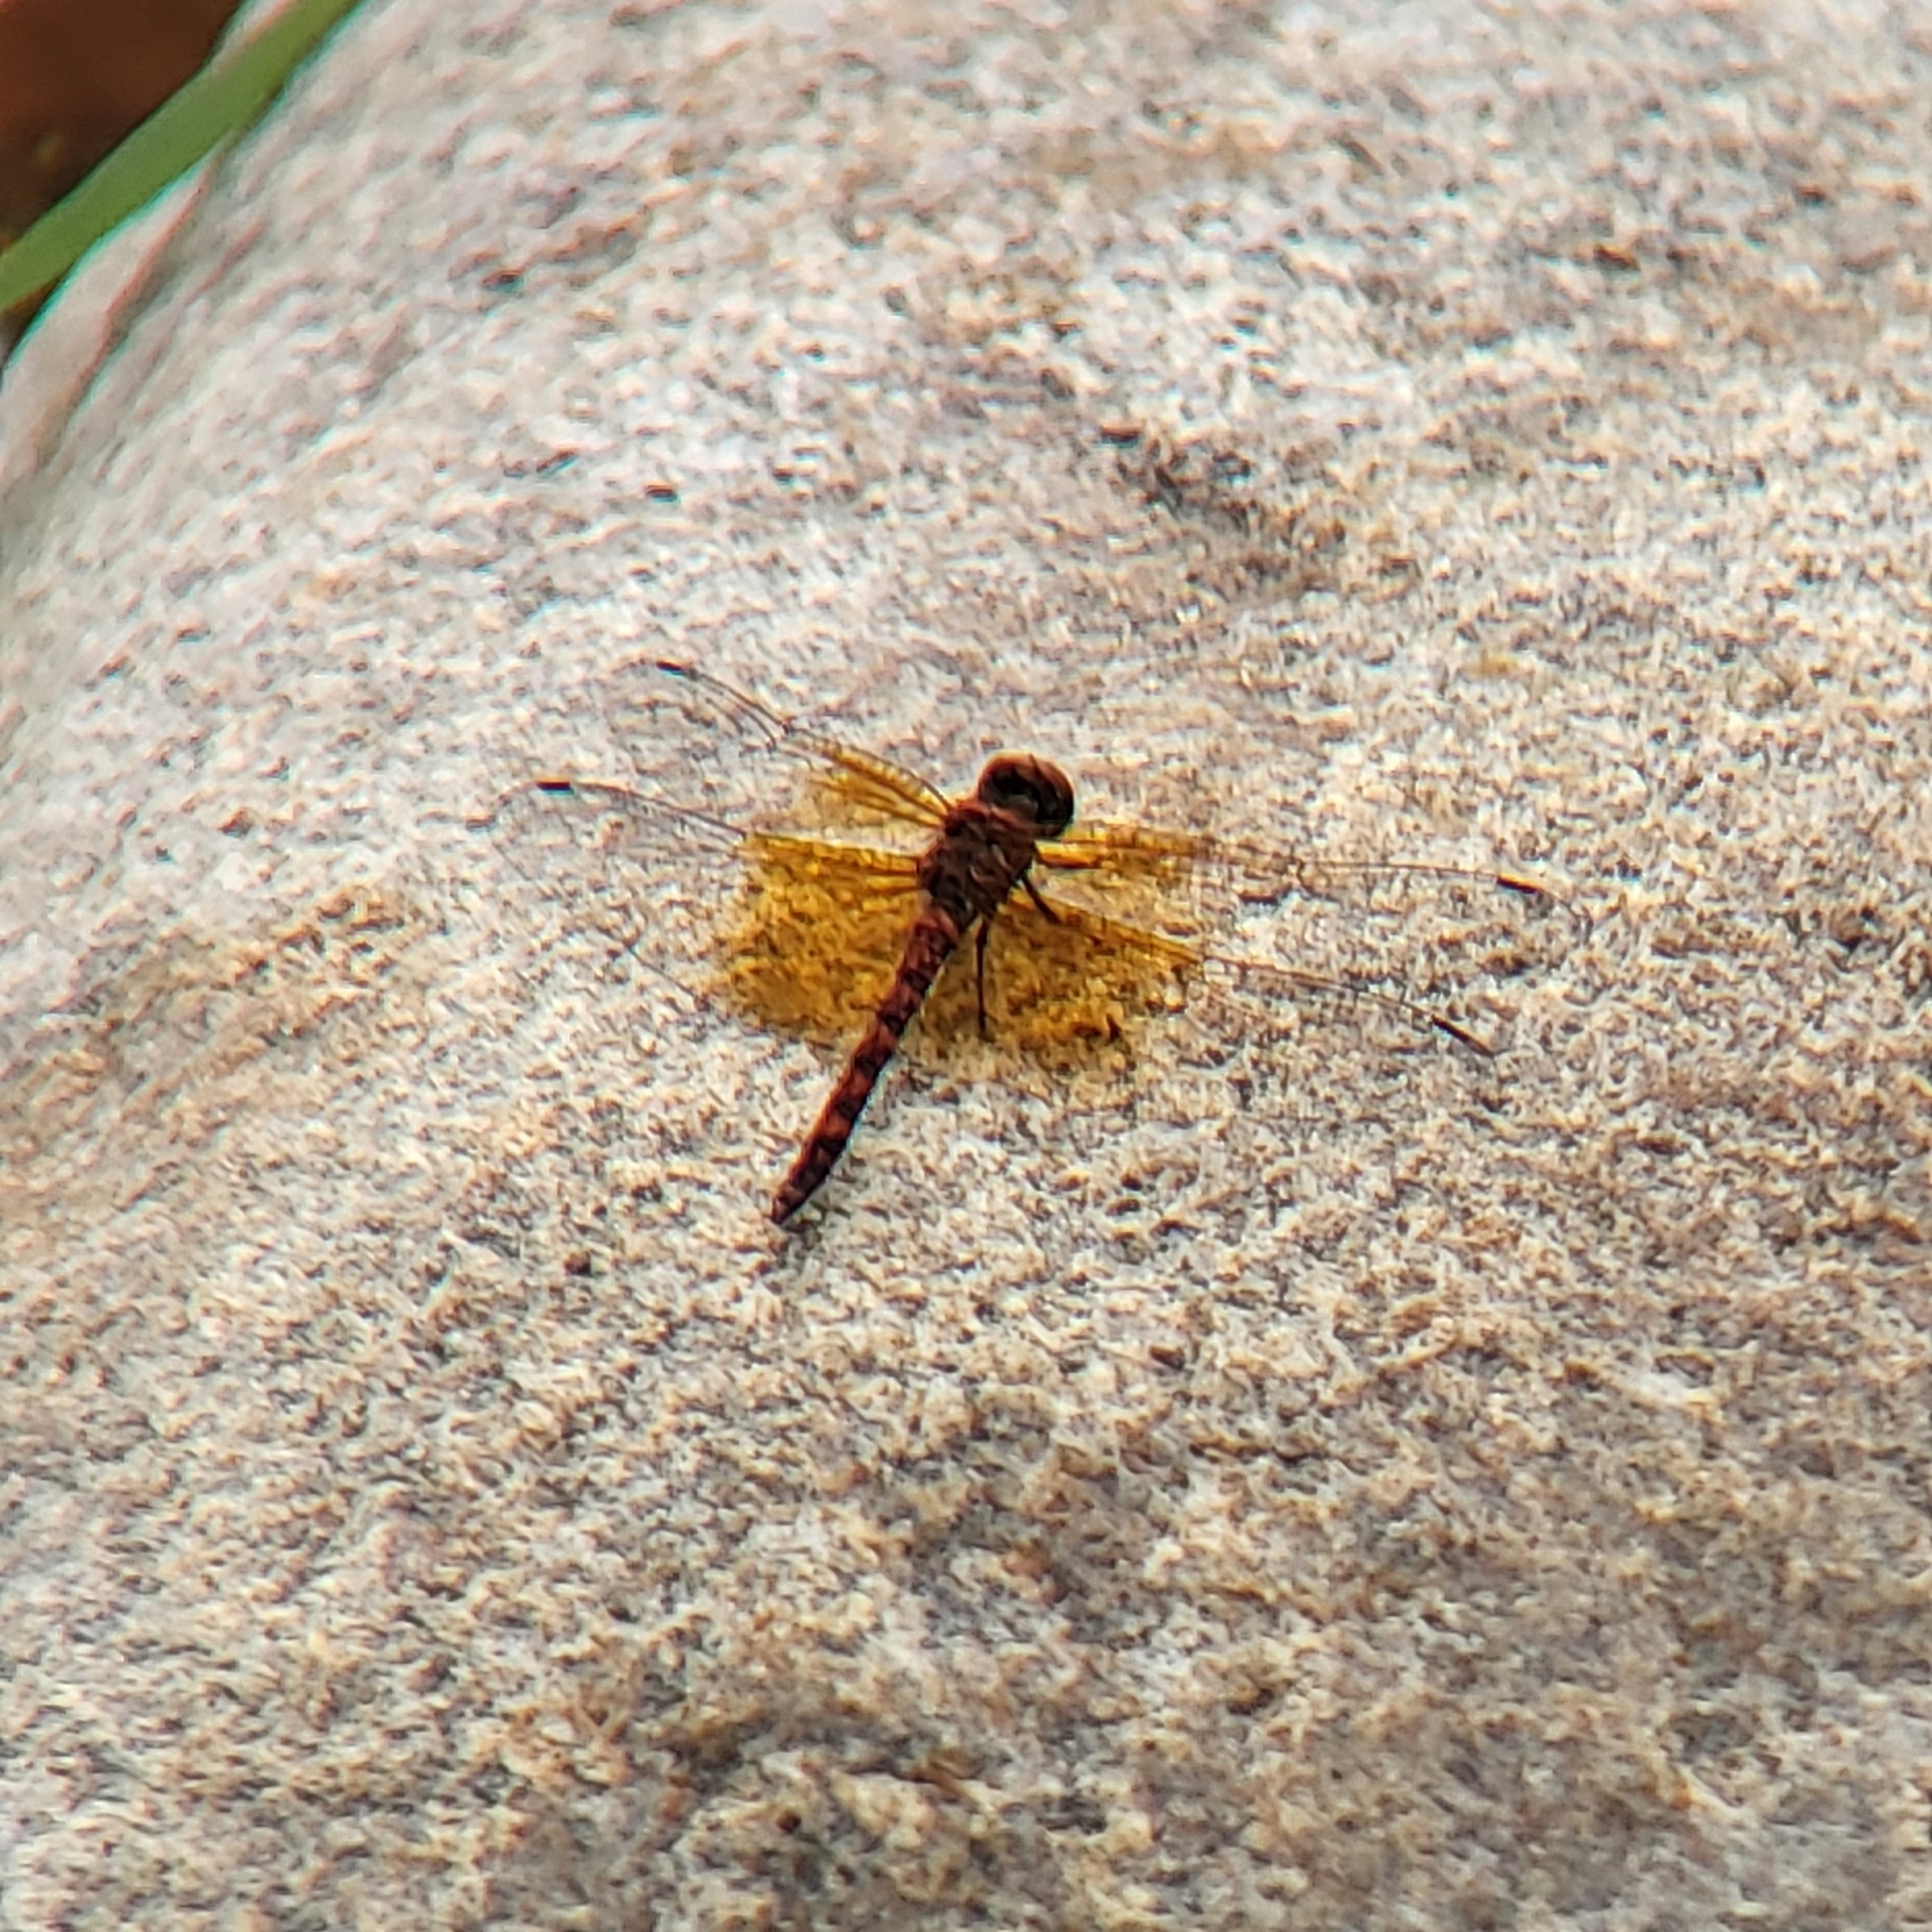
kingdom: Animalia
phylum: Arthropoda
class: Insecta
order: Odonata
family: Libellulidae
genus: Paltothemis
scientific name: Paltothemis lineatipes
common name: Red rock skimmer
